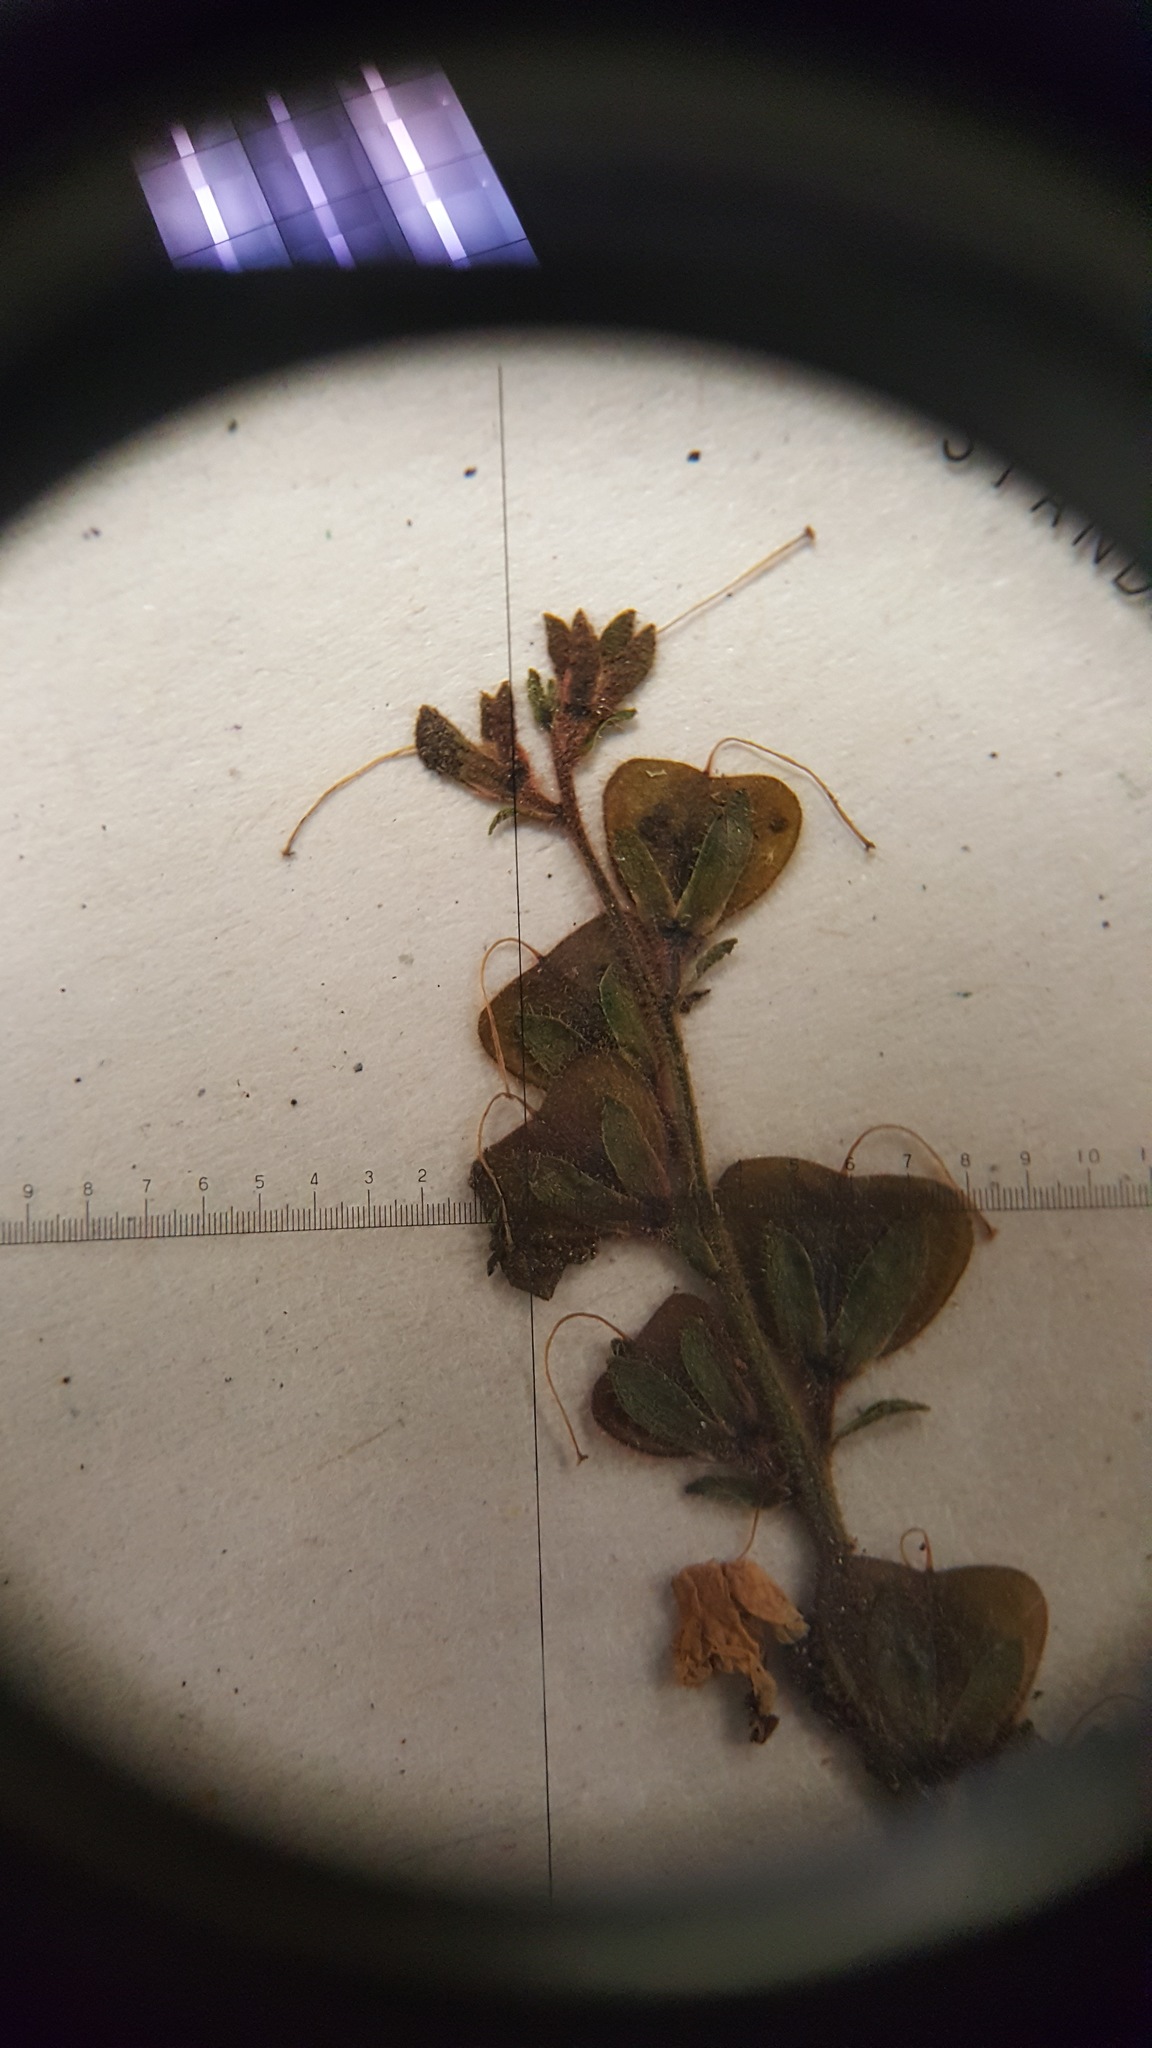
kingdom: Plantae
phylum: Tracheophyta
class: Magnoliopsida
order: Lamiales
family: Plantaginaceae
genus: Veronica
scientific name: Veronica officinalis
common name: Common speedwell
